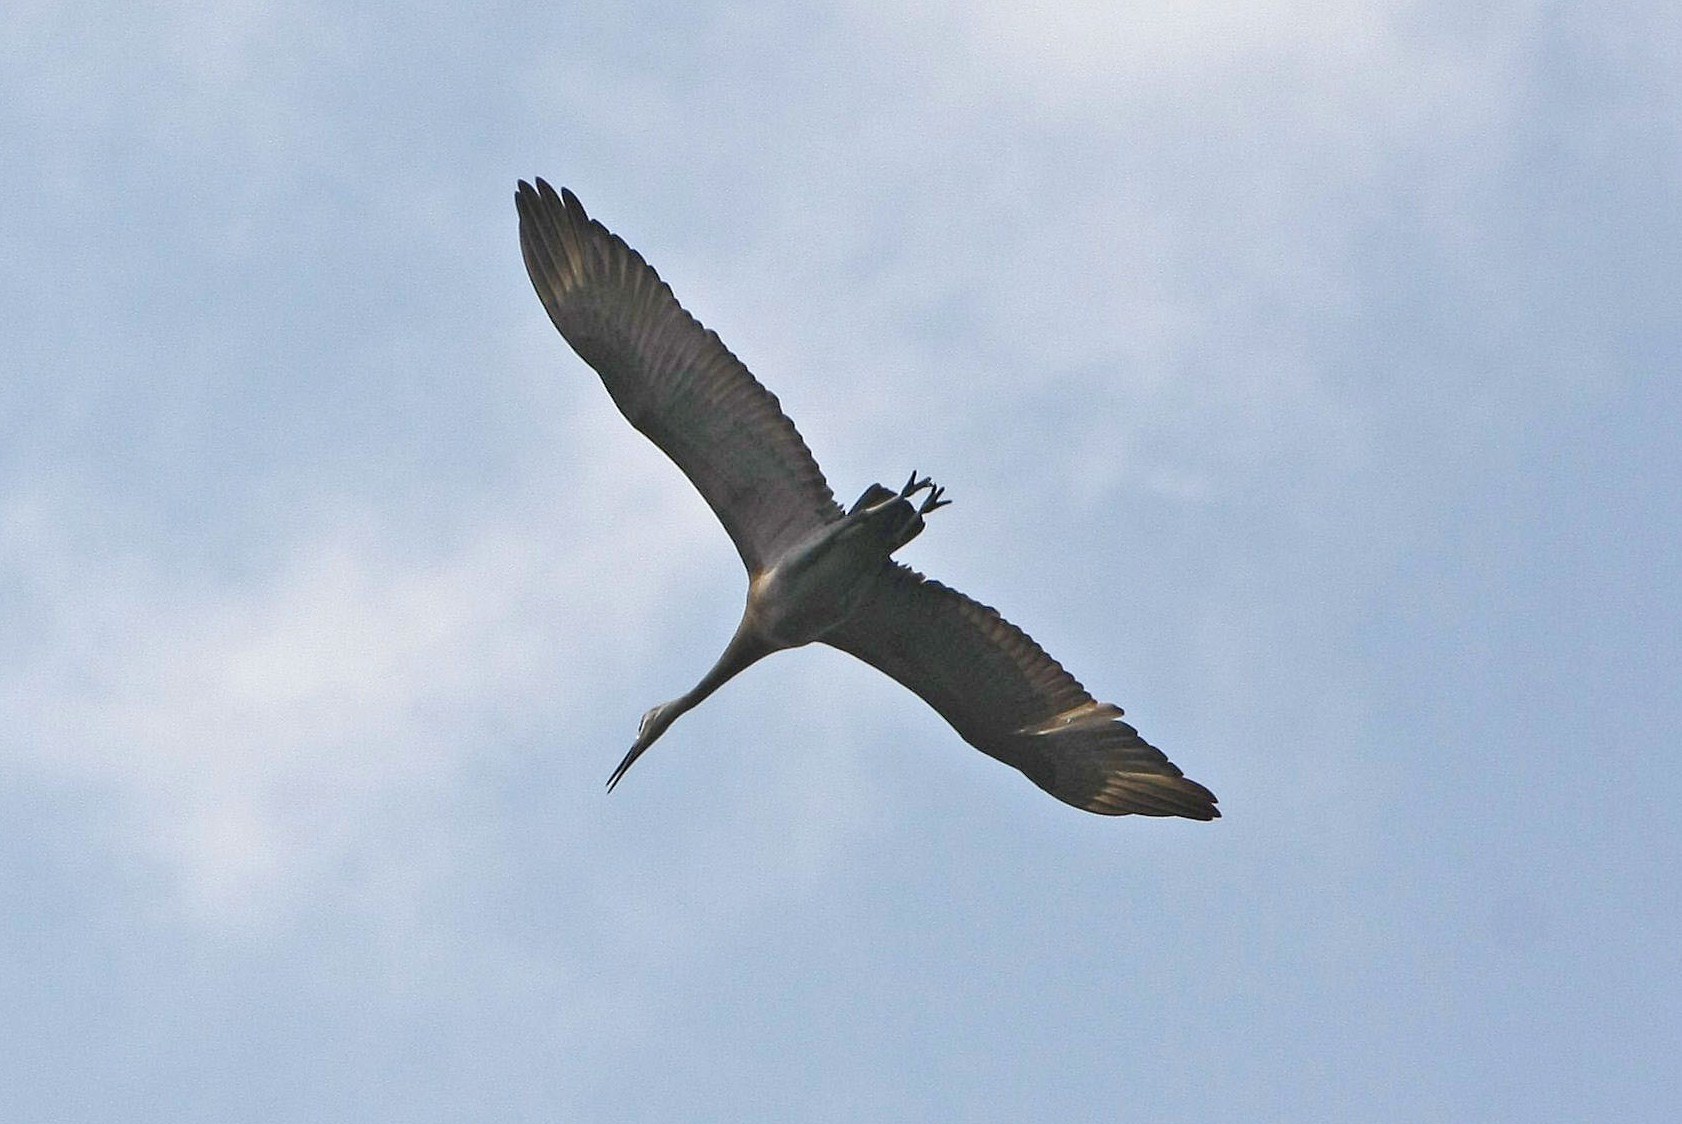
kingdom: Animalia
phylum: Chordata
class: Aves
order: Gruiformes
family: Gruidae
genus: Grus
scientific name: Grus canadensis
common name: Sandhill crane
